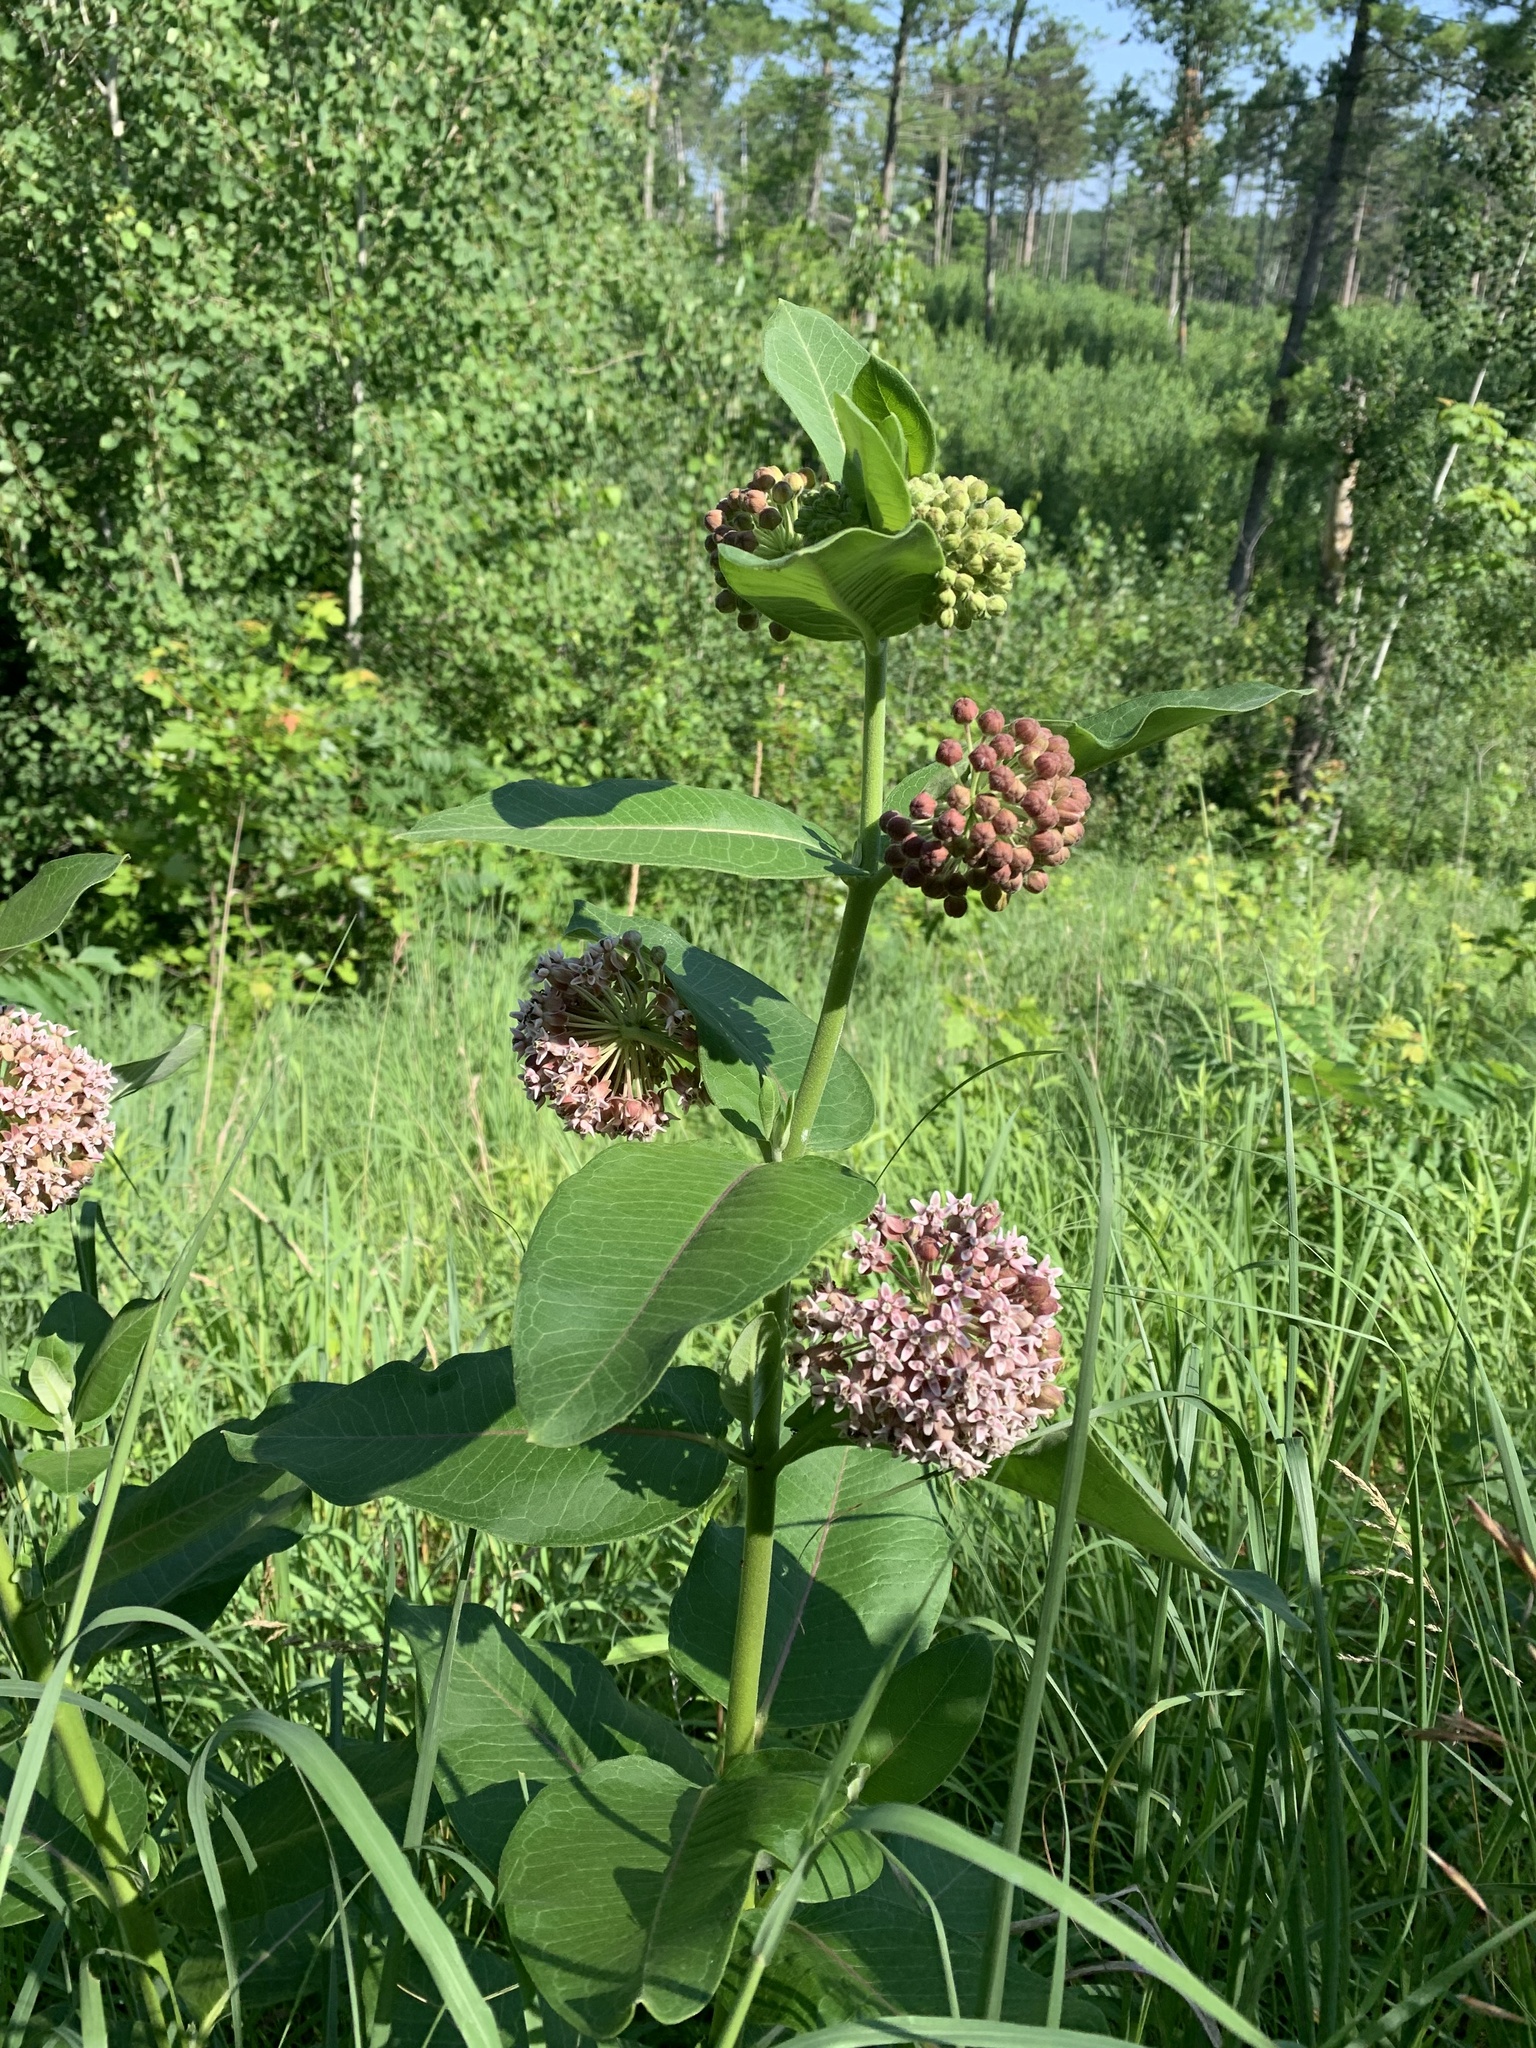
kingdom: Plantae
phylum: Tracheophyta
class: Magnoliopsida
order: Gentianales
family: Apocynaceae
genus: Asclepias
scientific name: Asclepias syriaca
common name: Common milkweed
